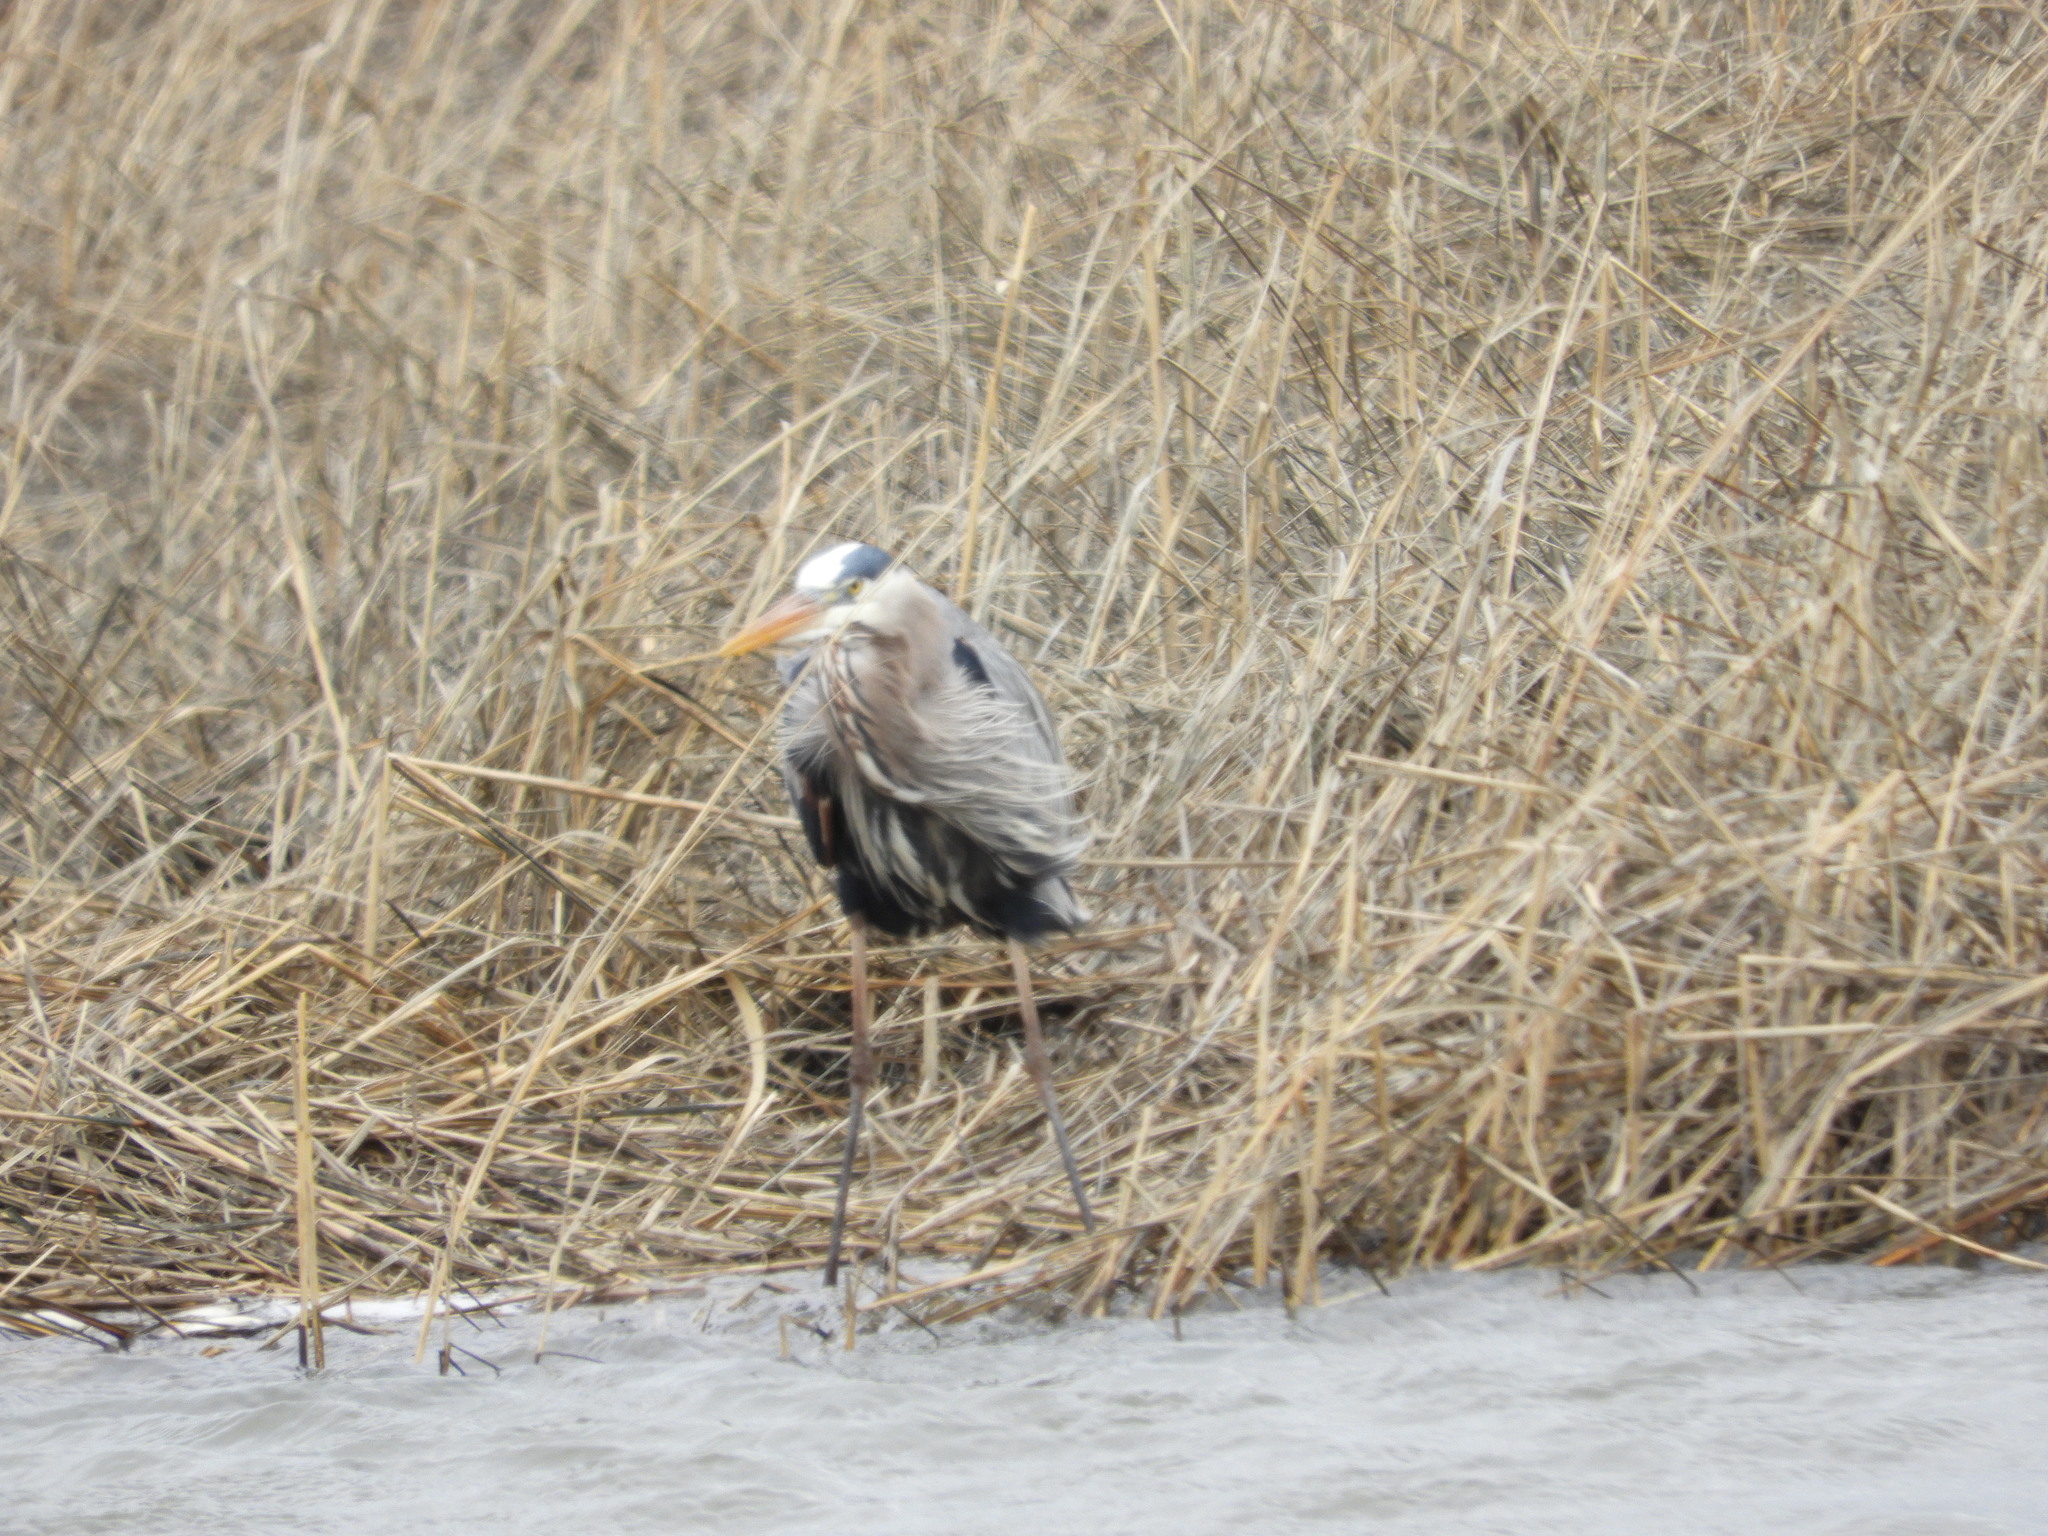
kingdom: Animalia
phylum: Chordata
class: Aves
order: Pelecaniformes
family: Ardeidae
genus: Ardea
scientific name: Ardea herodias
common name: Great blue heron
